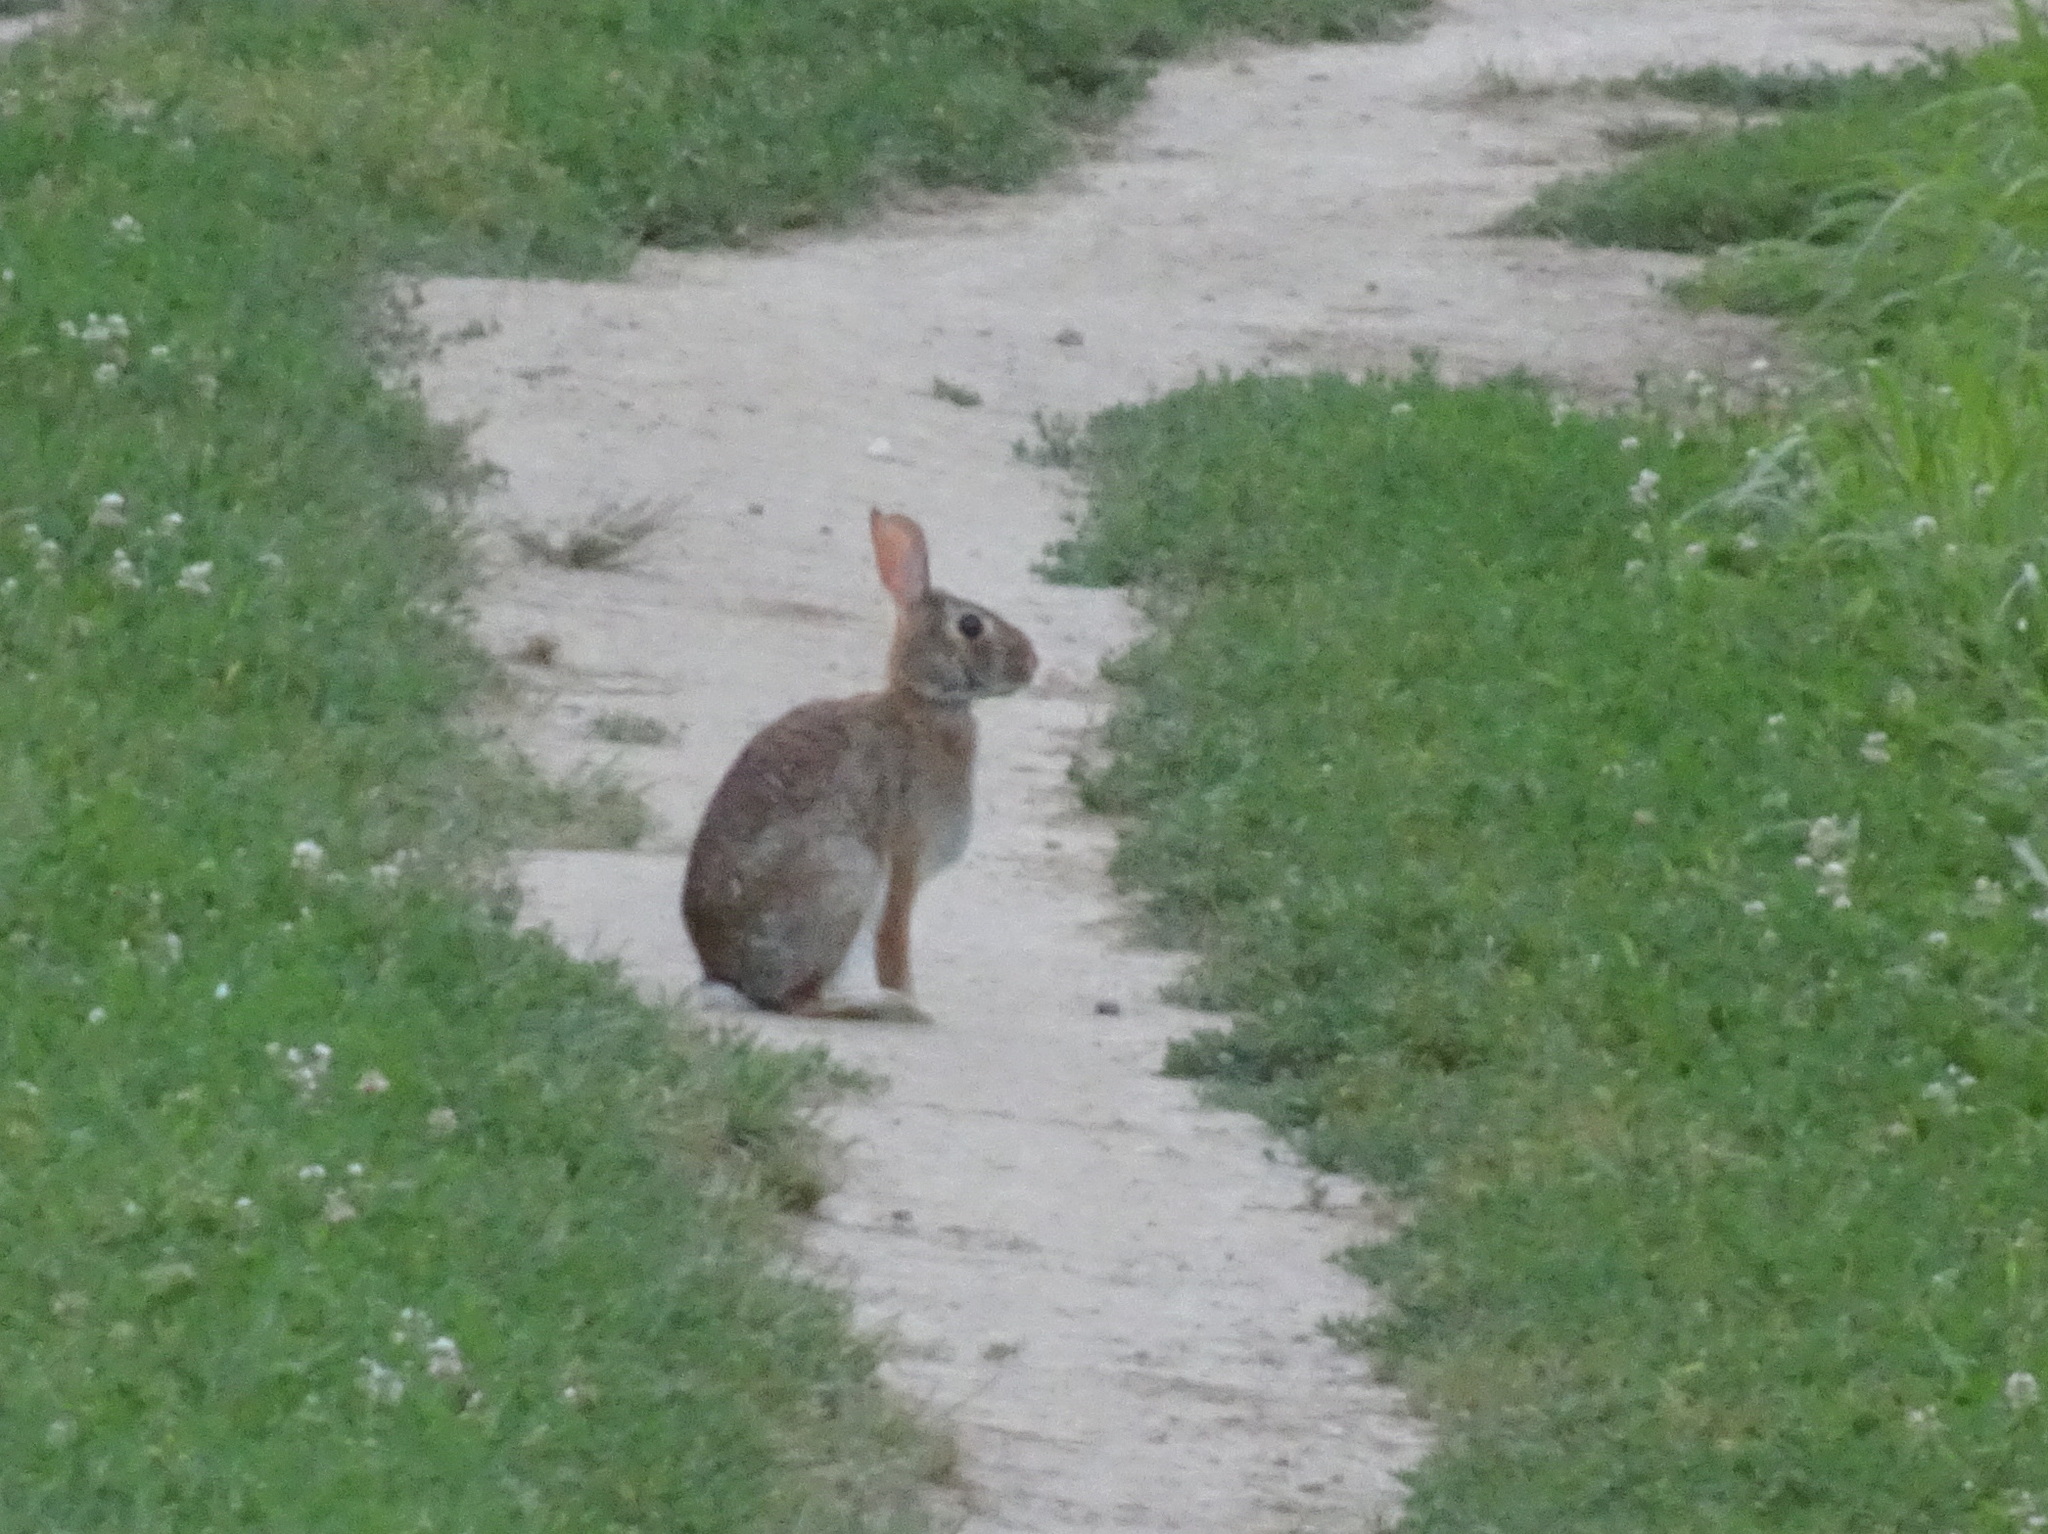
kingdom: Animalia
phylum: Chordata
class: Mammalia
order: Lagomorpha
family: Leporidae
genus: Sylvilagus
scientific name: Sylvilagus floridanus
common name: Eastern cottontail
